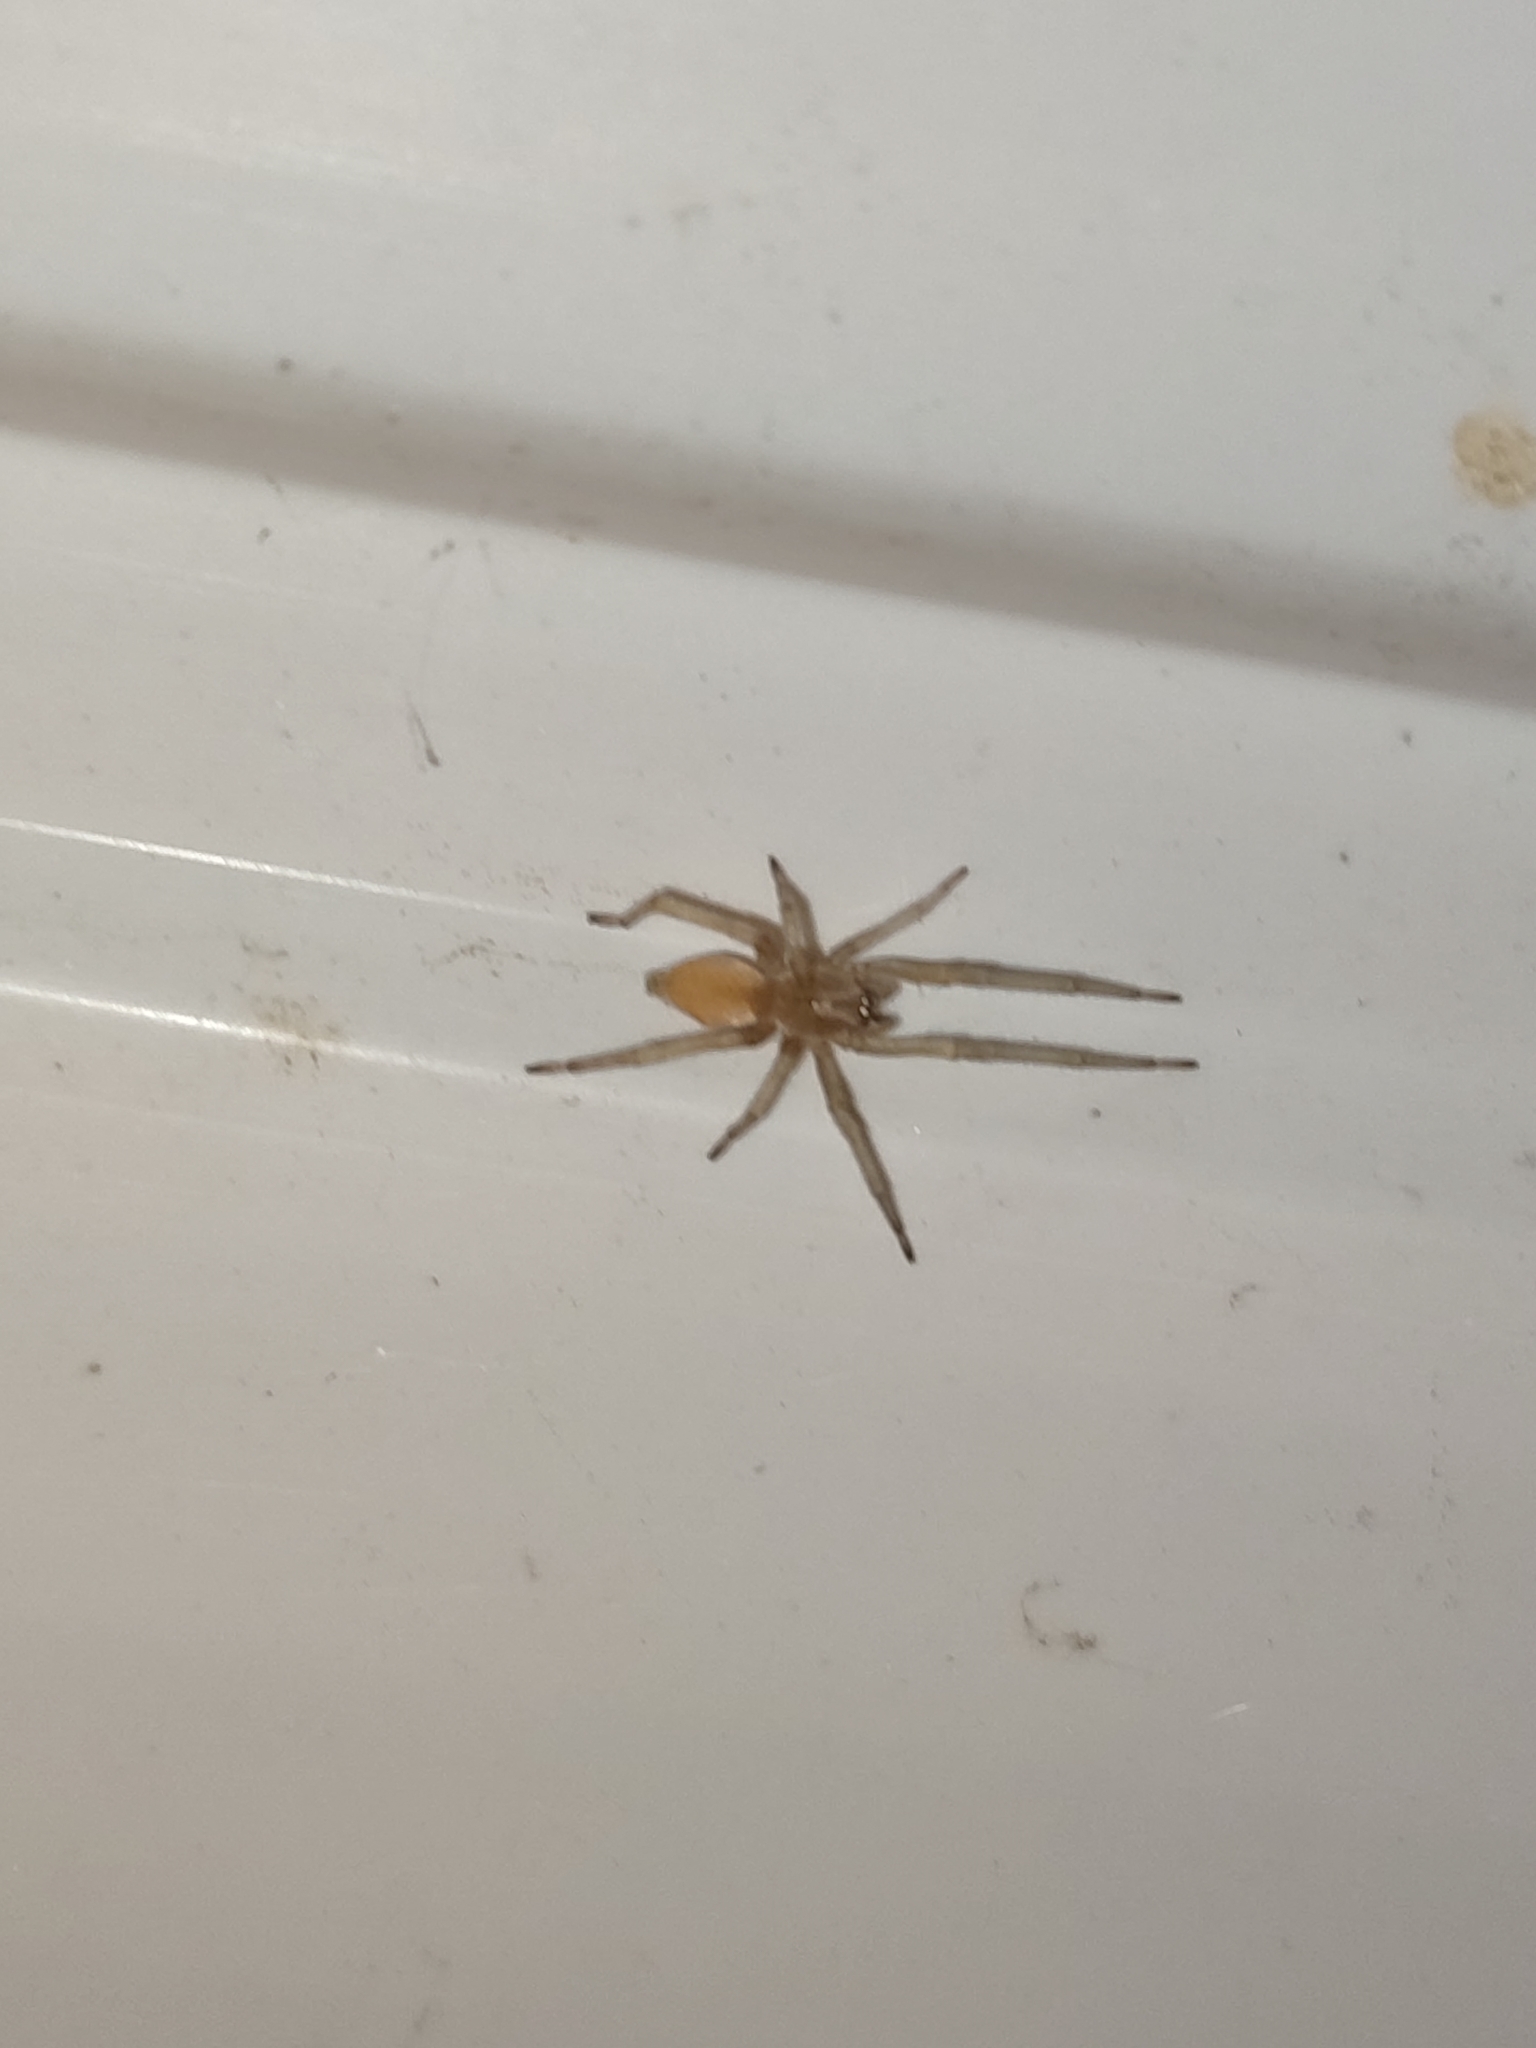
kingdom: Animalia
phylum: Arthropoda
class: Arachnida
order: Araneae
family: Cheiracanthiidae
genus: Cheiracanthium
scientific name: Cheiracanthium mildei
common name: Northern yellow sac spider
